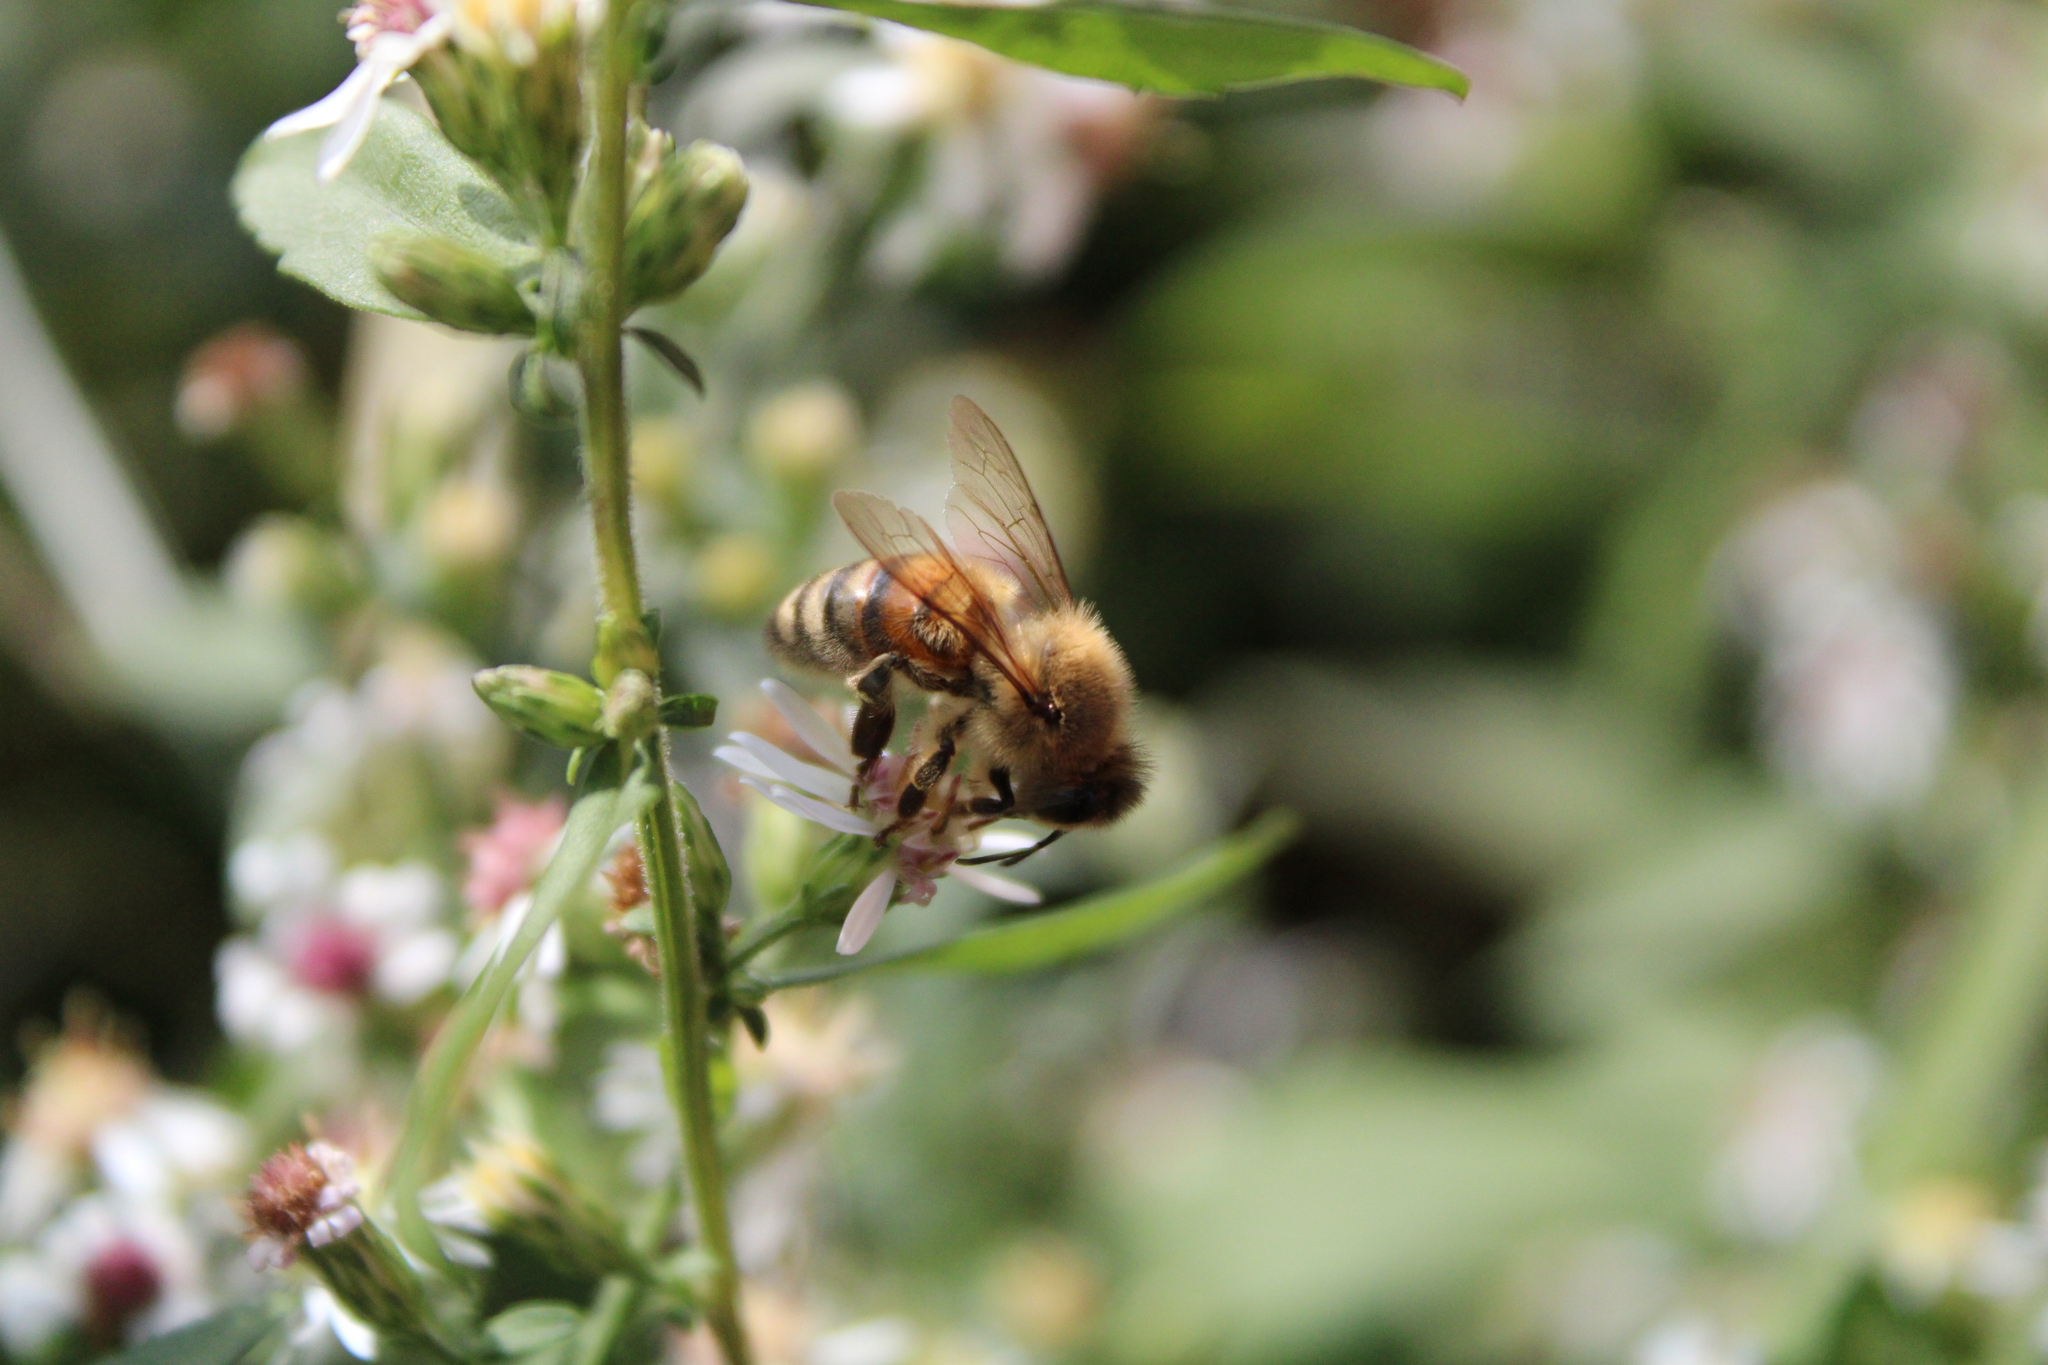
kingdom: Animalia
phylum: Arthropoda
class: Insecta
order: Hymenoptera
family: Apidae
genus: Apis
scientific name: Apis mellifera
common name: Honey bee
